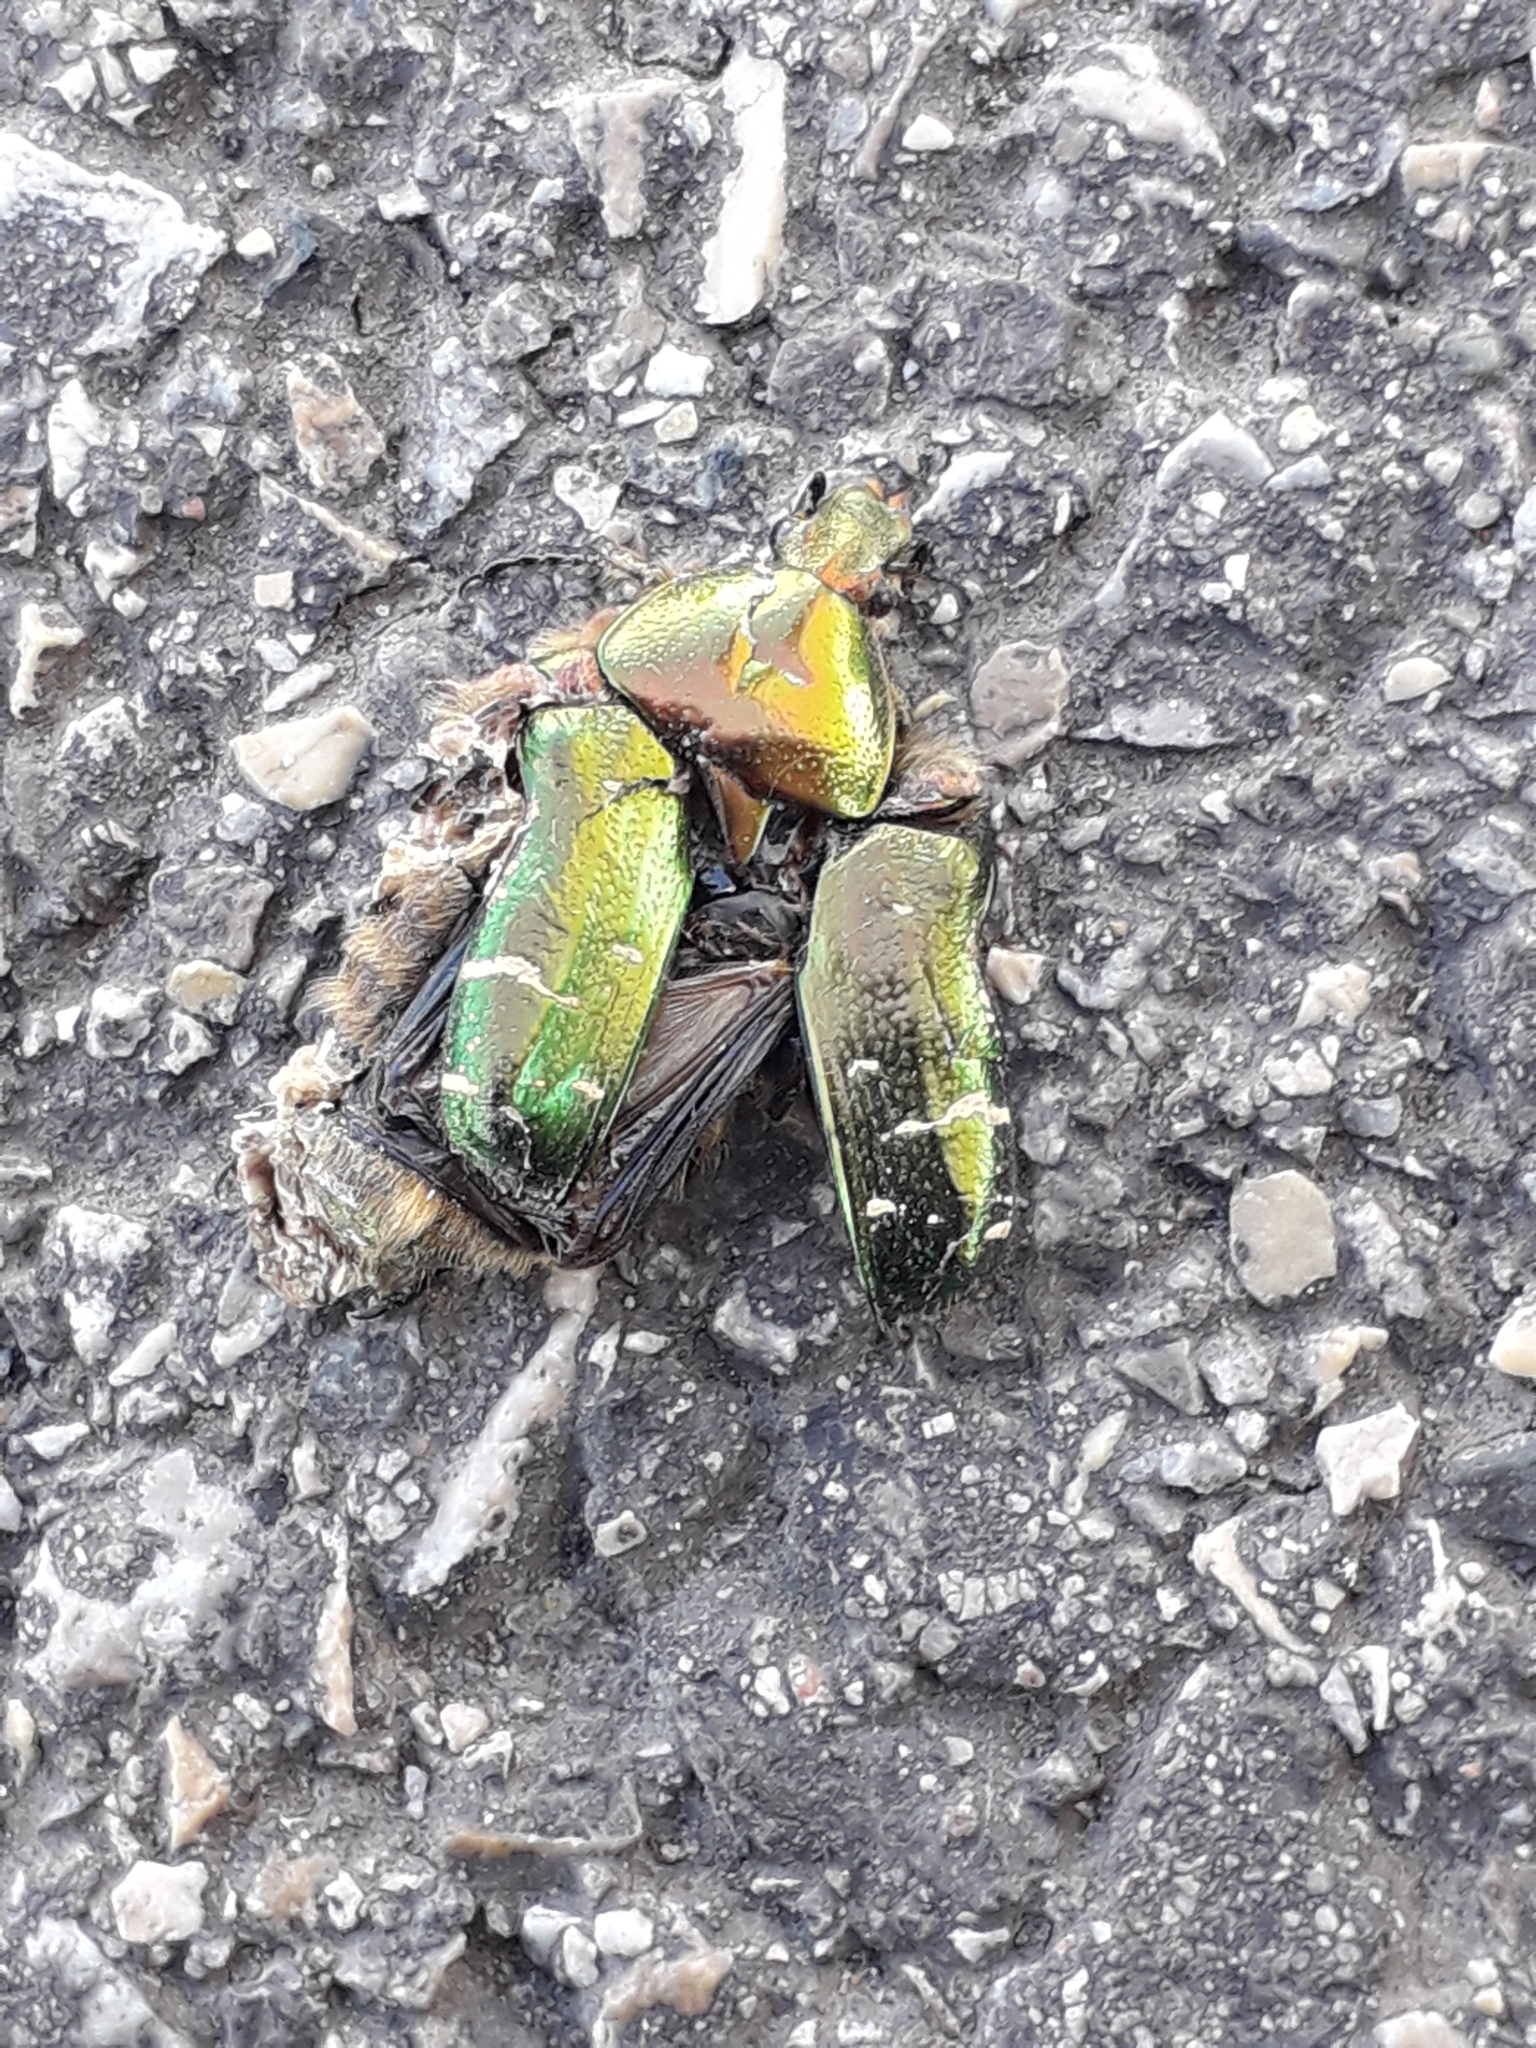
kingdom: Animalia
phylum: Arthropoda
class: Insecta
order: Coleoptera
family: Scarabaeidae
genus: Cetonia
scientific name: Cetonia aurata
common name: Rose chafer
